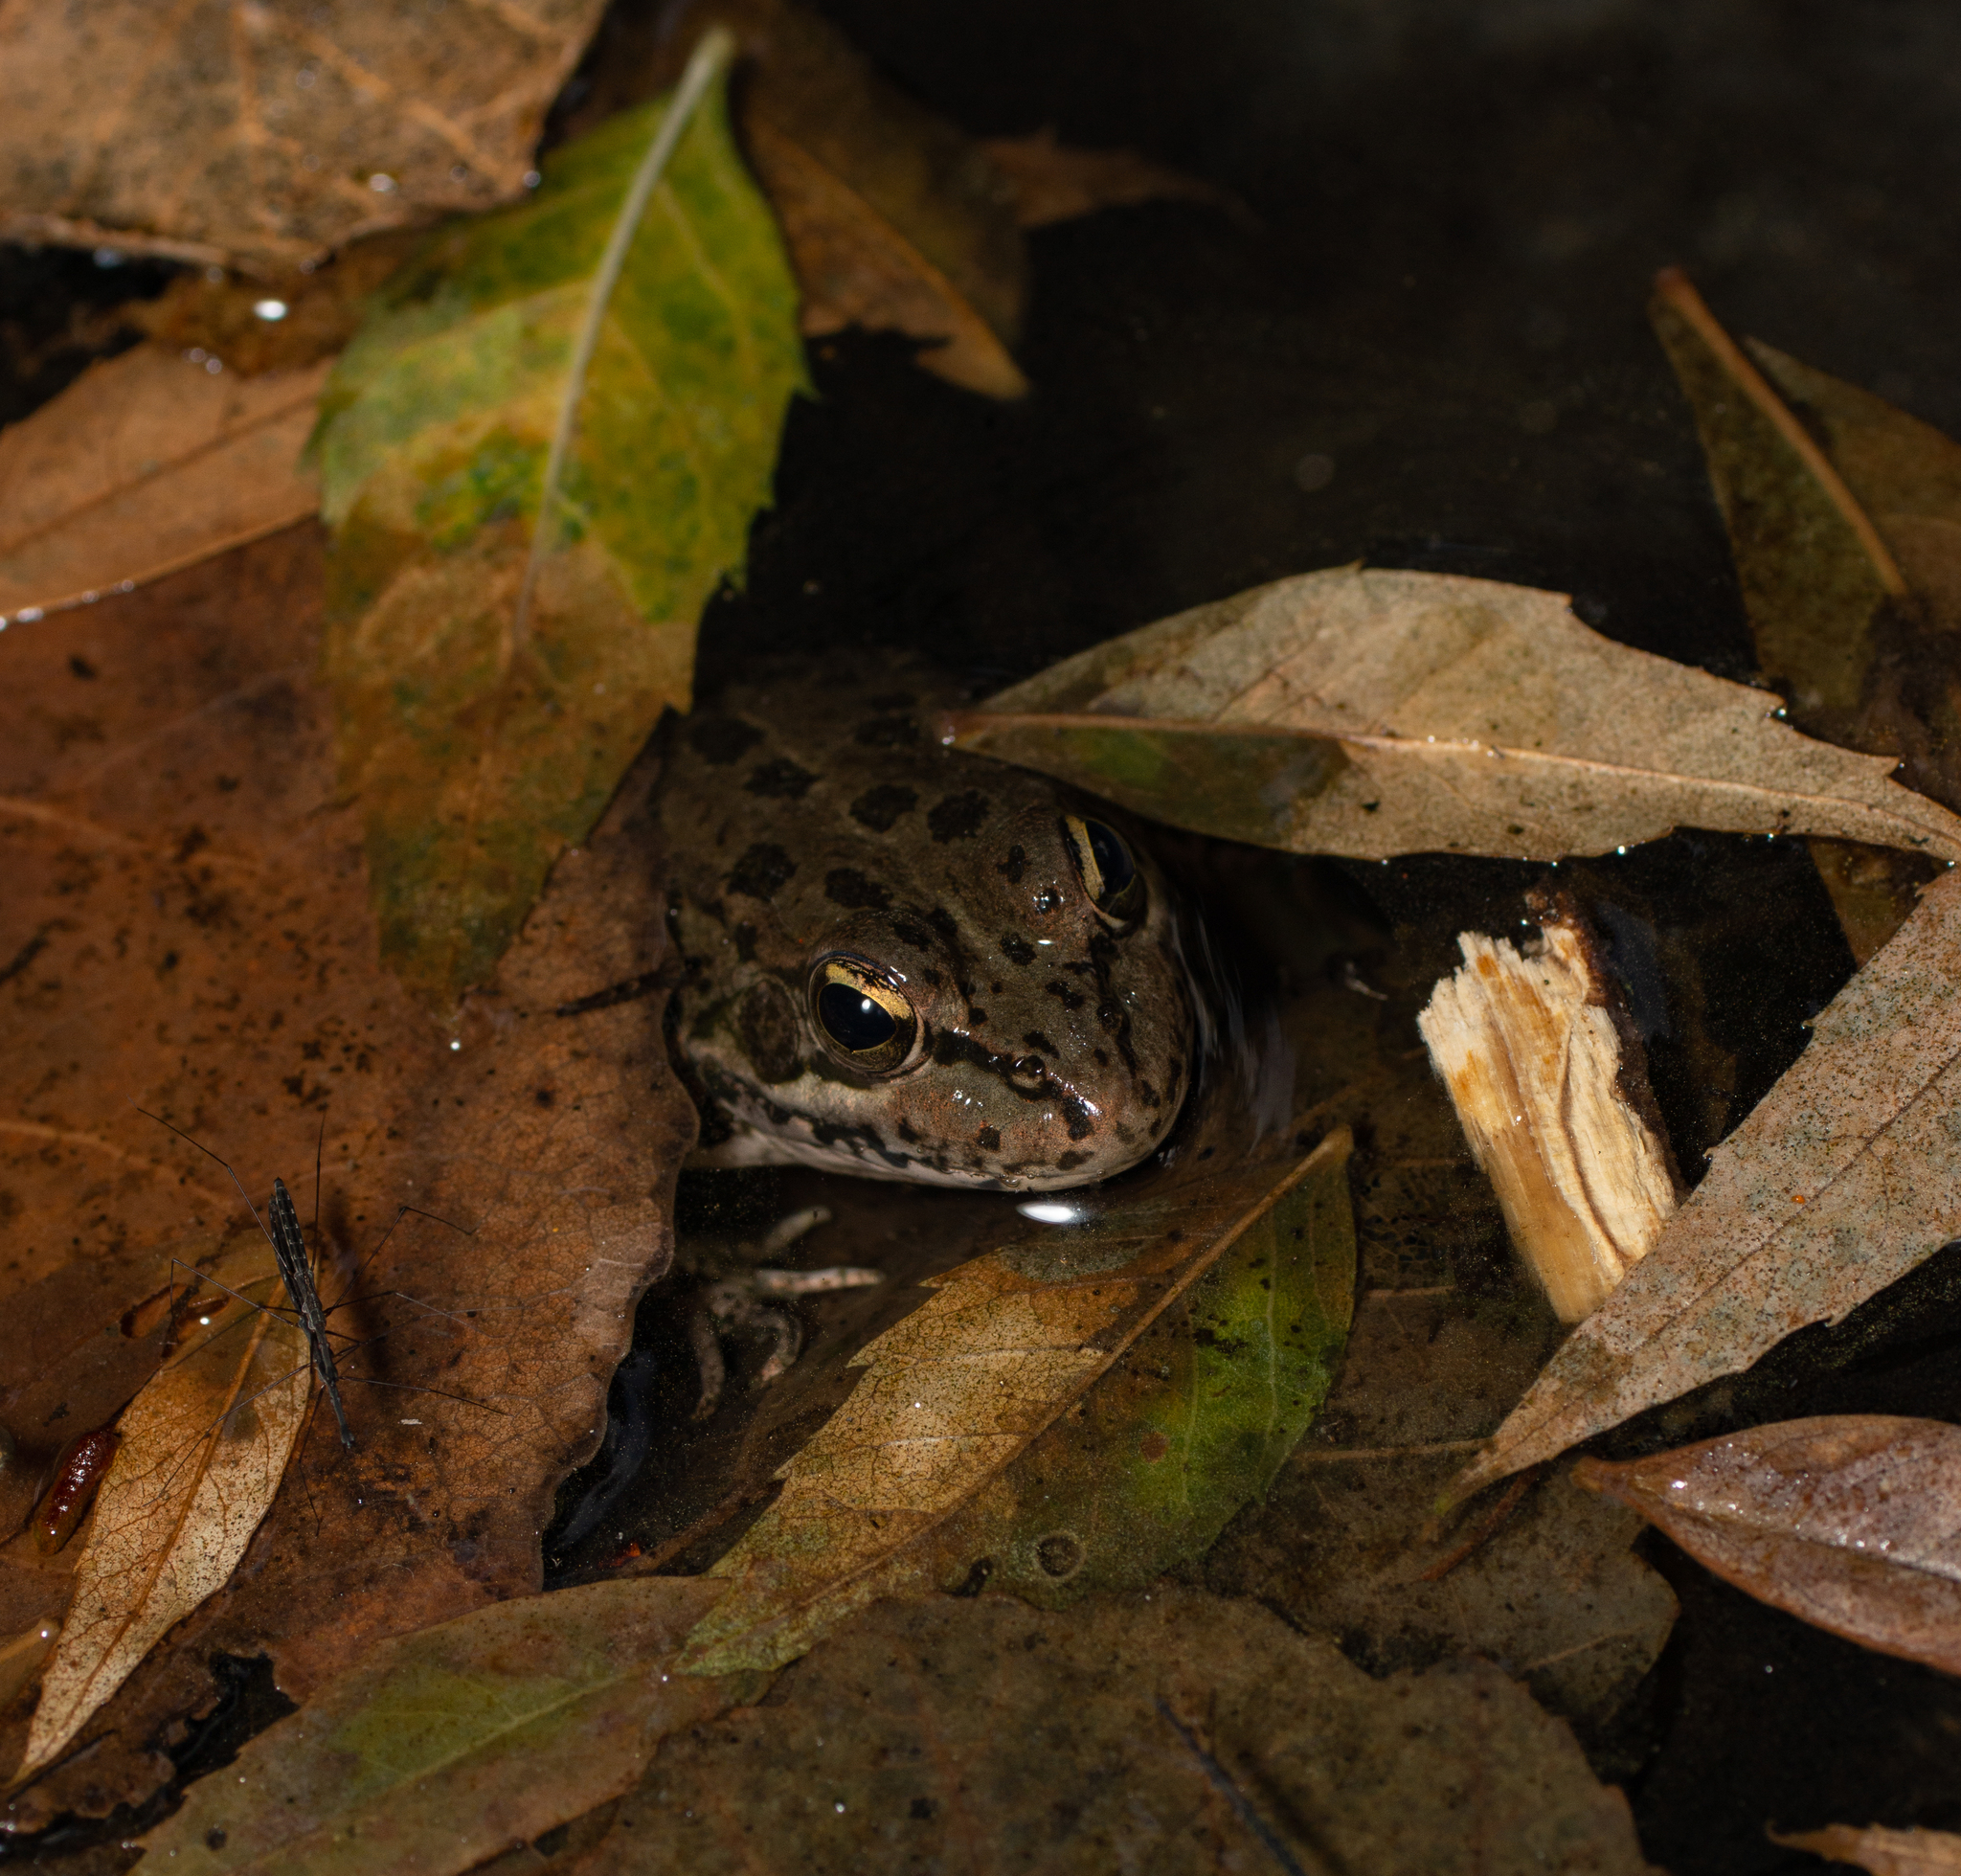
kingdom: Animalia
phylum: Chordata
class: Amphibia
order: Anura
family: Ranidae
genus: Pelophylax
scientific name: Pelophylax perezi
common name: Perez's frog
